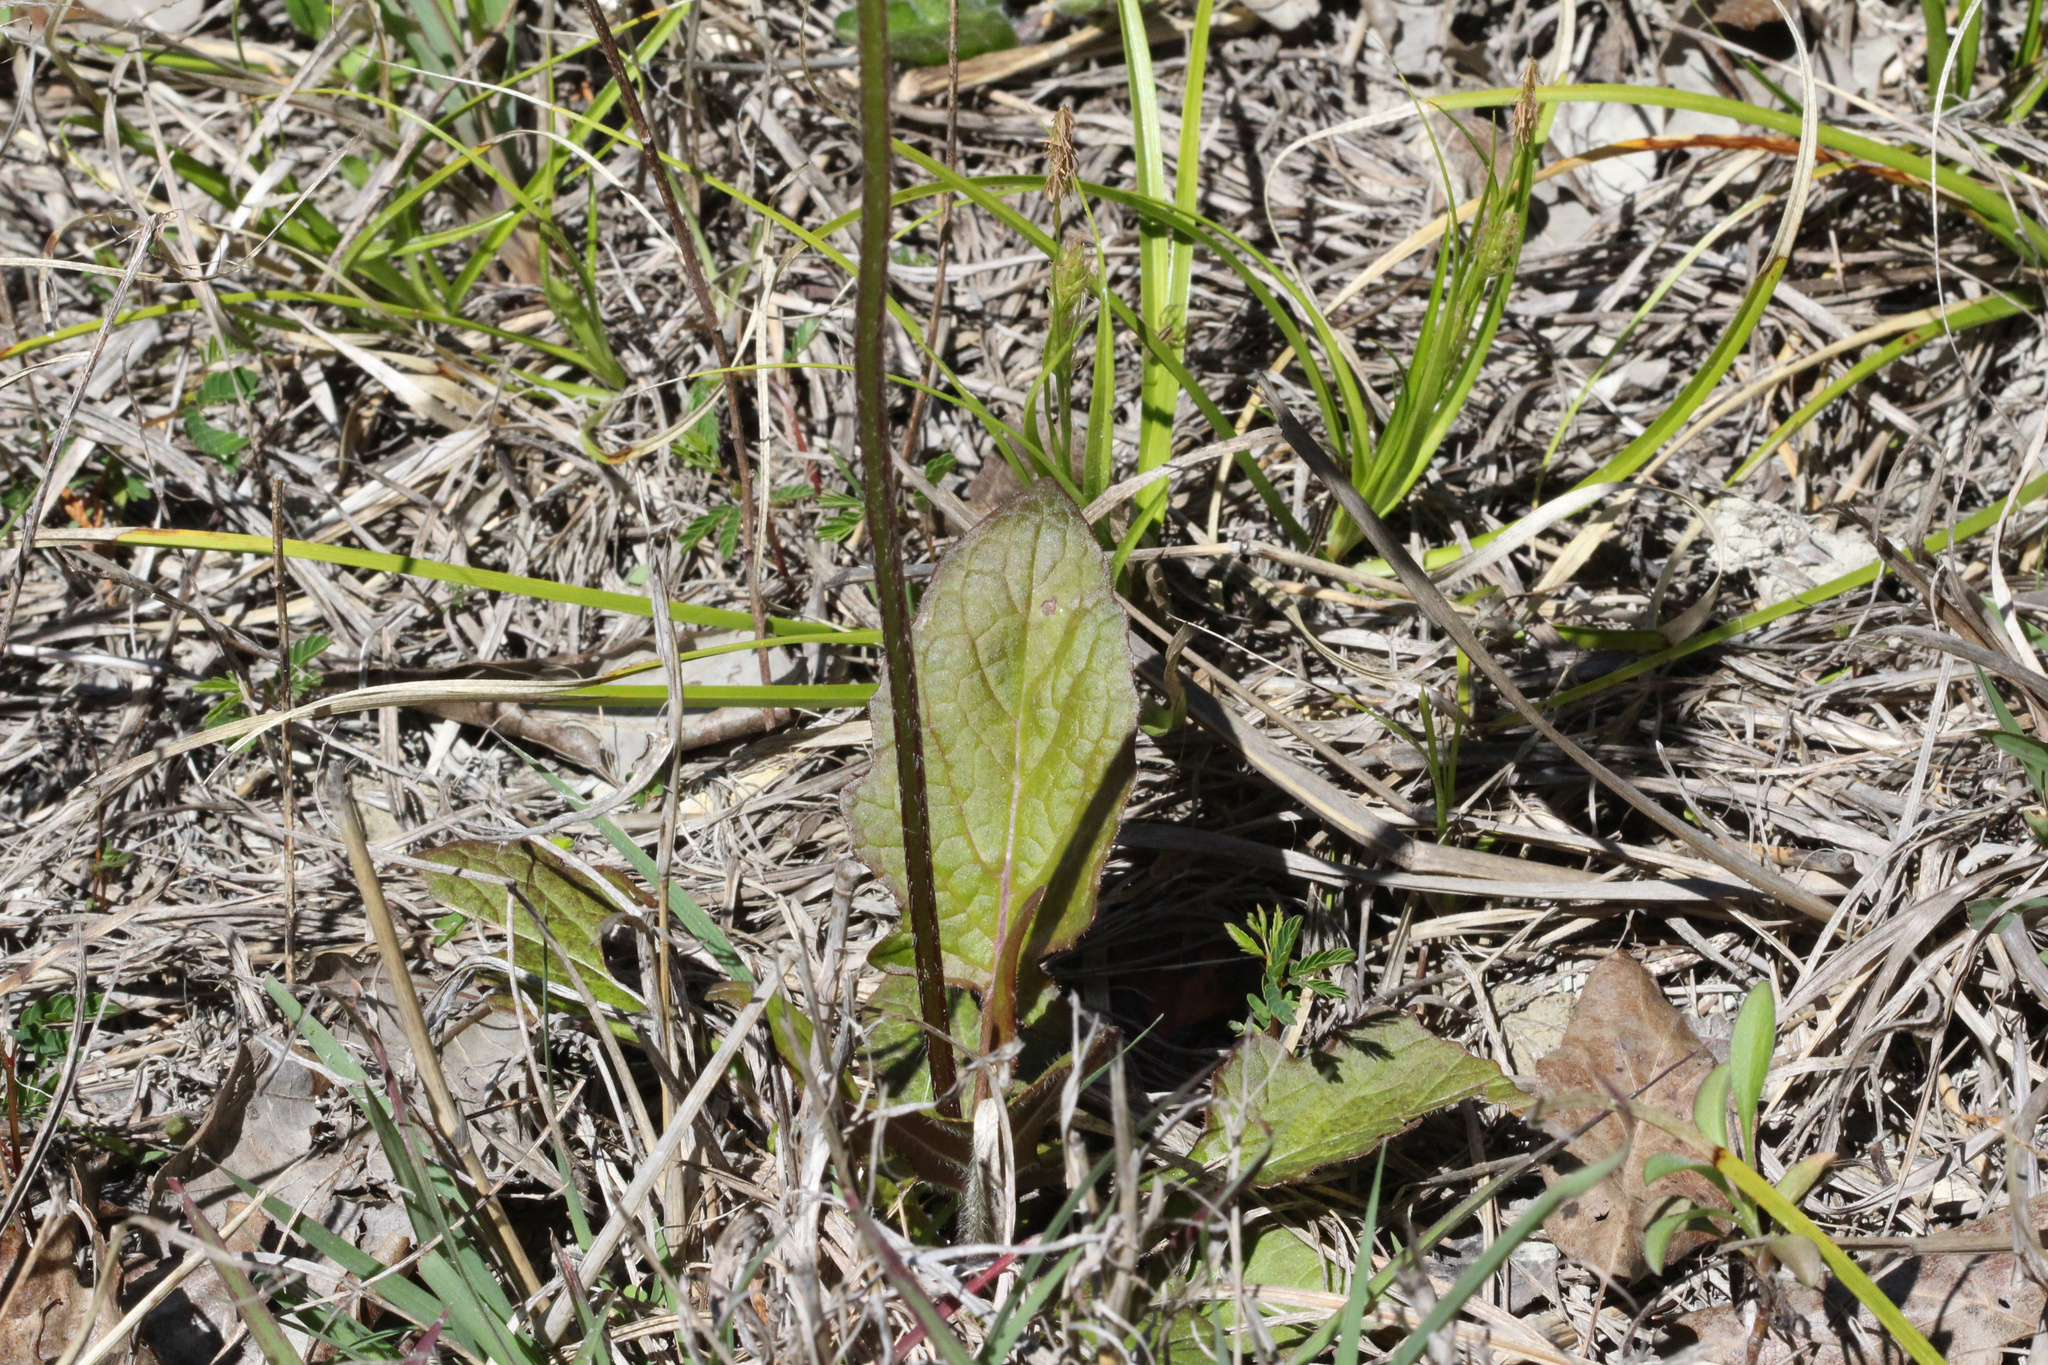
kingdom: Plantae
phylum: Tracheophyta
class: Magnoliopsida
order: Lamiales
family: Lamiaceae
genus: Salvia
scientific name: Salvia lyrata
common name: Cancerweed
